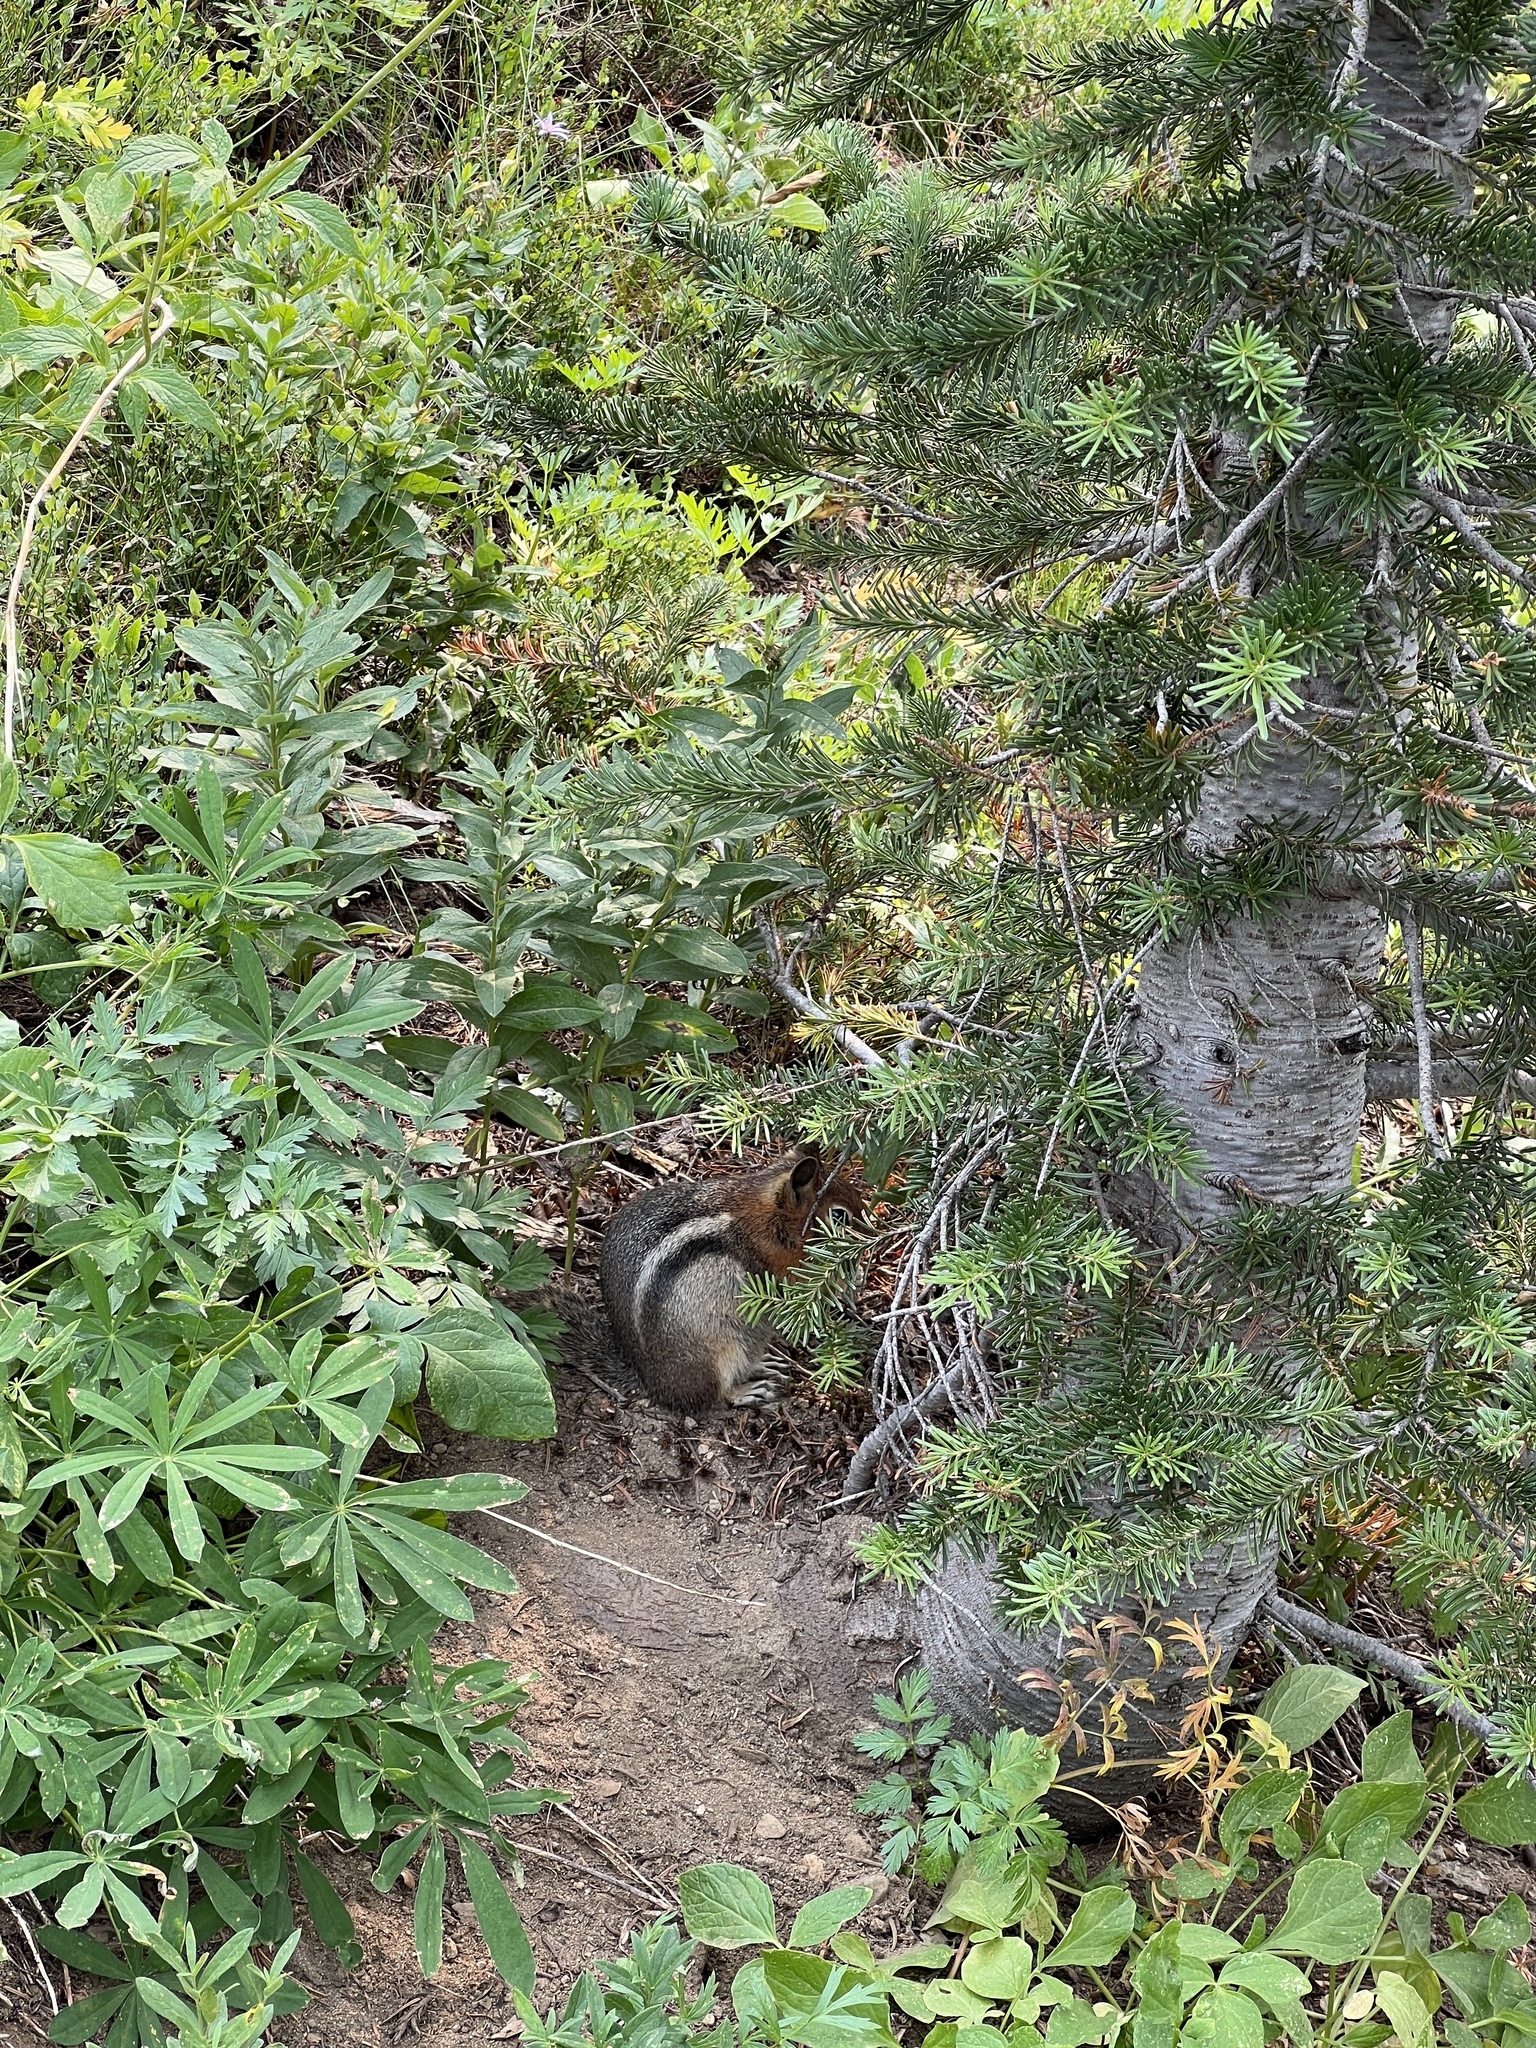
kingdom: Animalia
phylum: Chordata
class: Mammalia
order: Rodentia
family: Sciuridae
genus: Callospermophilus
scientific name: Callospermophilus saturatus
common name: Cascade golden-mantled ground squirrel
